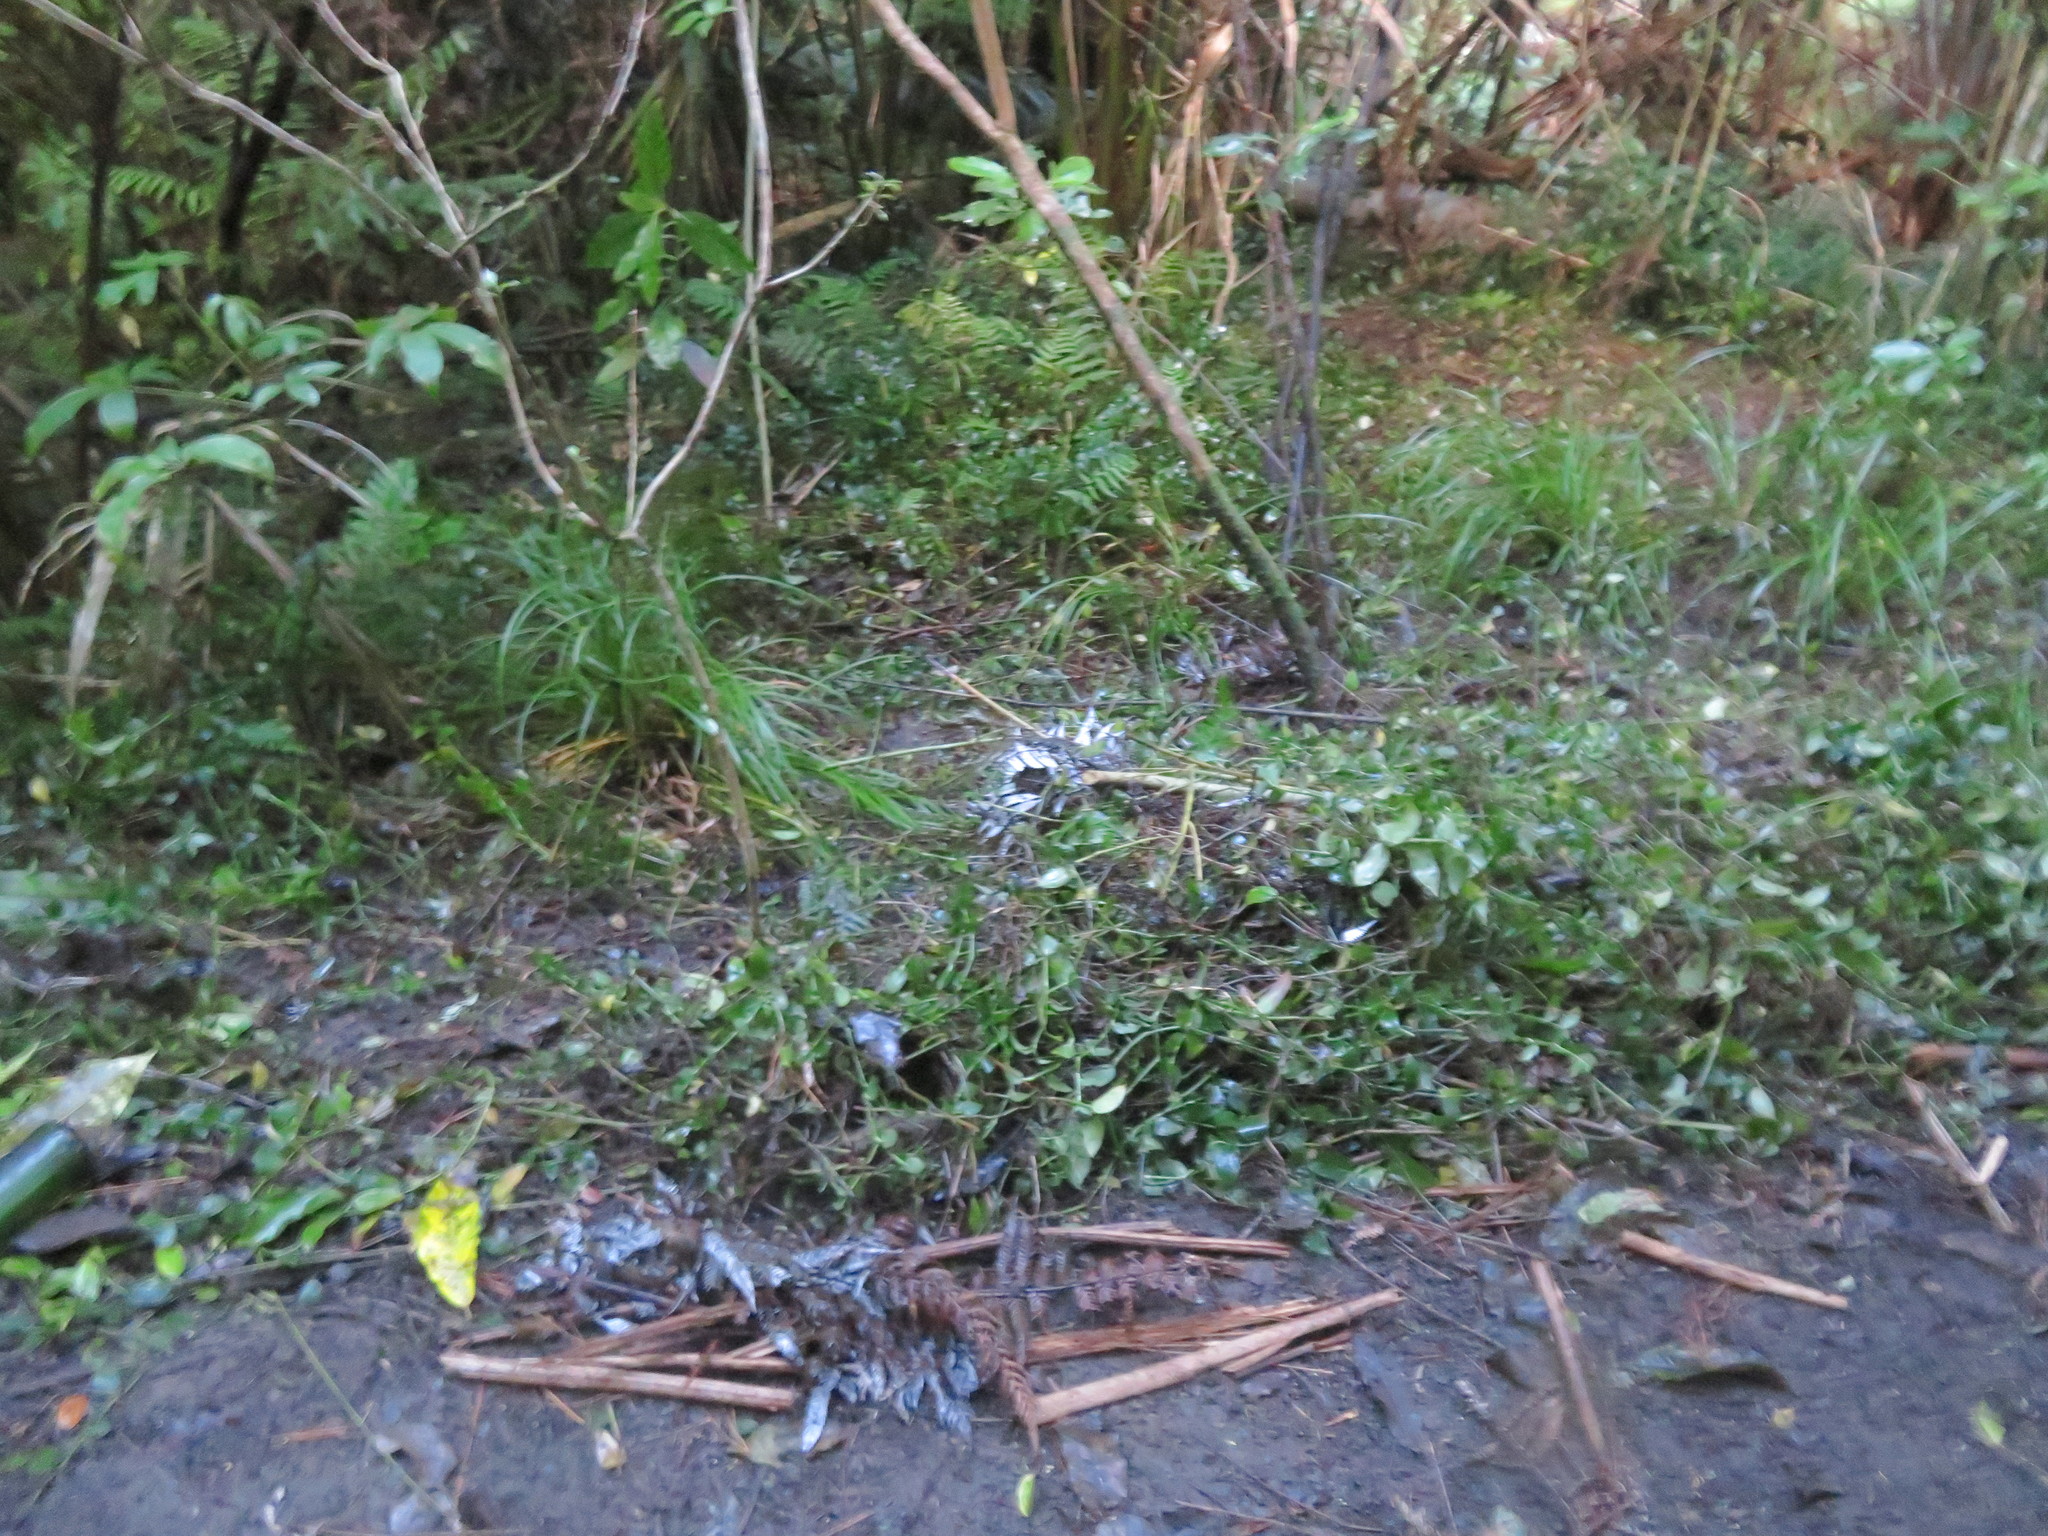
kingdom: Plantae
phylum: Tracheophyta
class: Liliopsida
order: Commelinales
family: Commelinaceae
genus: Tradescantia
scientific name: Tradescantia fluminensis
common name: Wandering-jew
